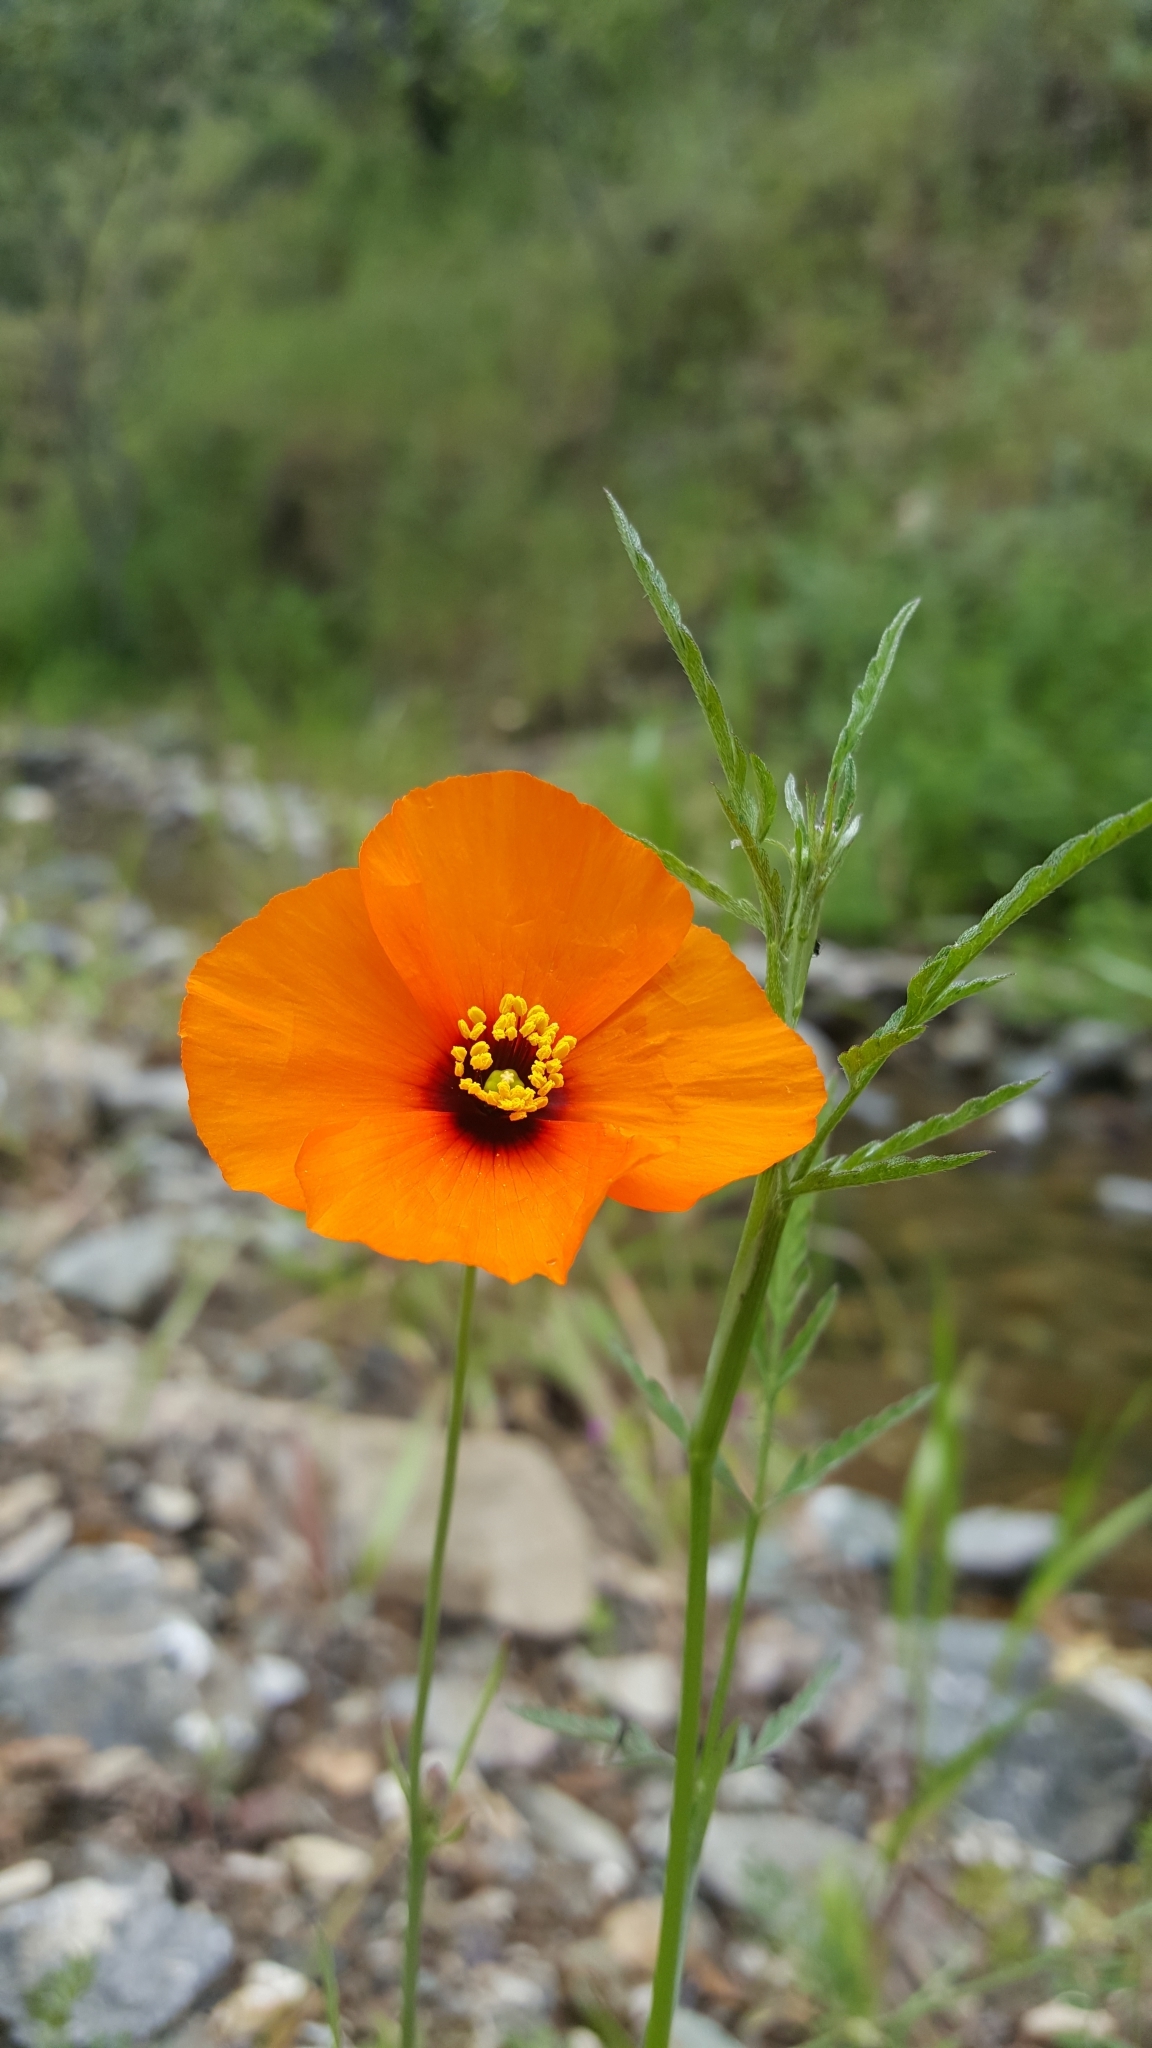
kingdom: Plantae
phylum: Tracheophyta
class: Magnoliopsida
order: Ranunculales
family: Papaveraceae
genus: Stylomecon
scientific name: Stylomecon heterophylla
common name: Flaming-poppy
